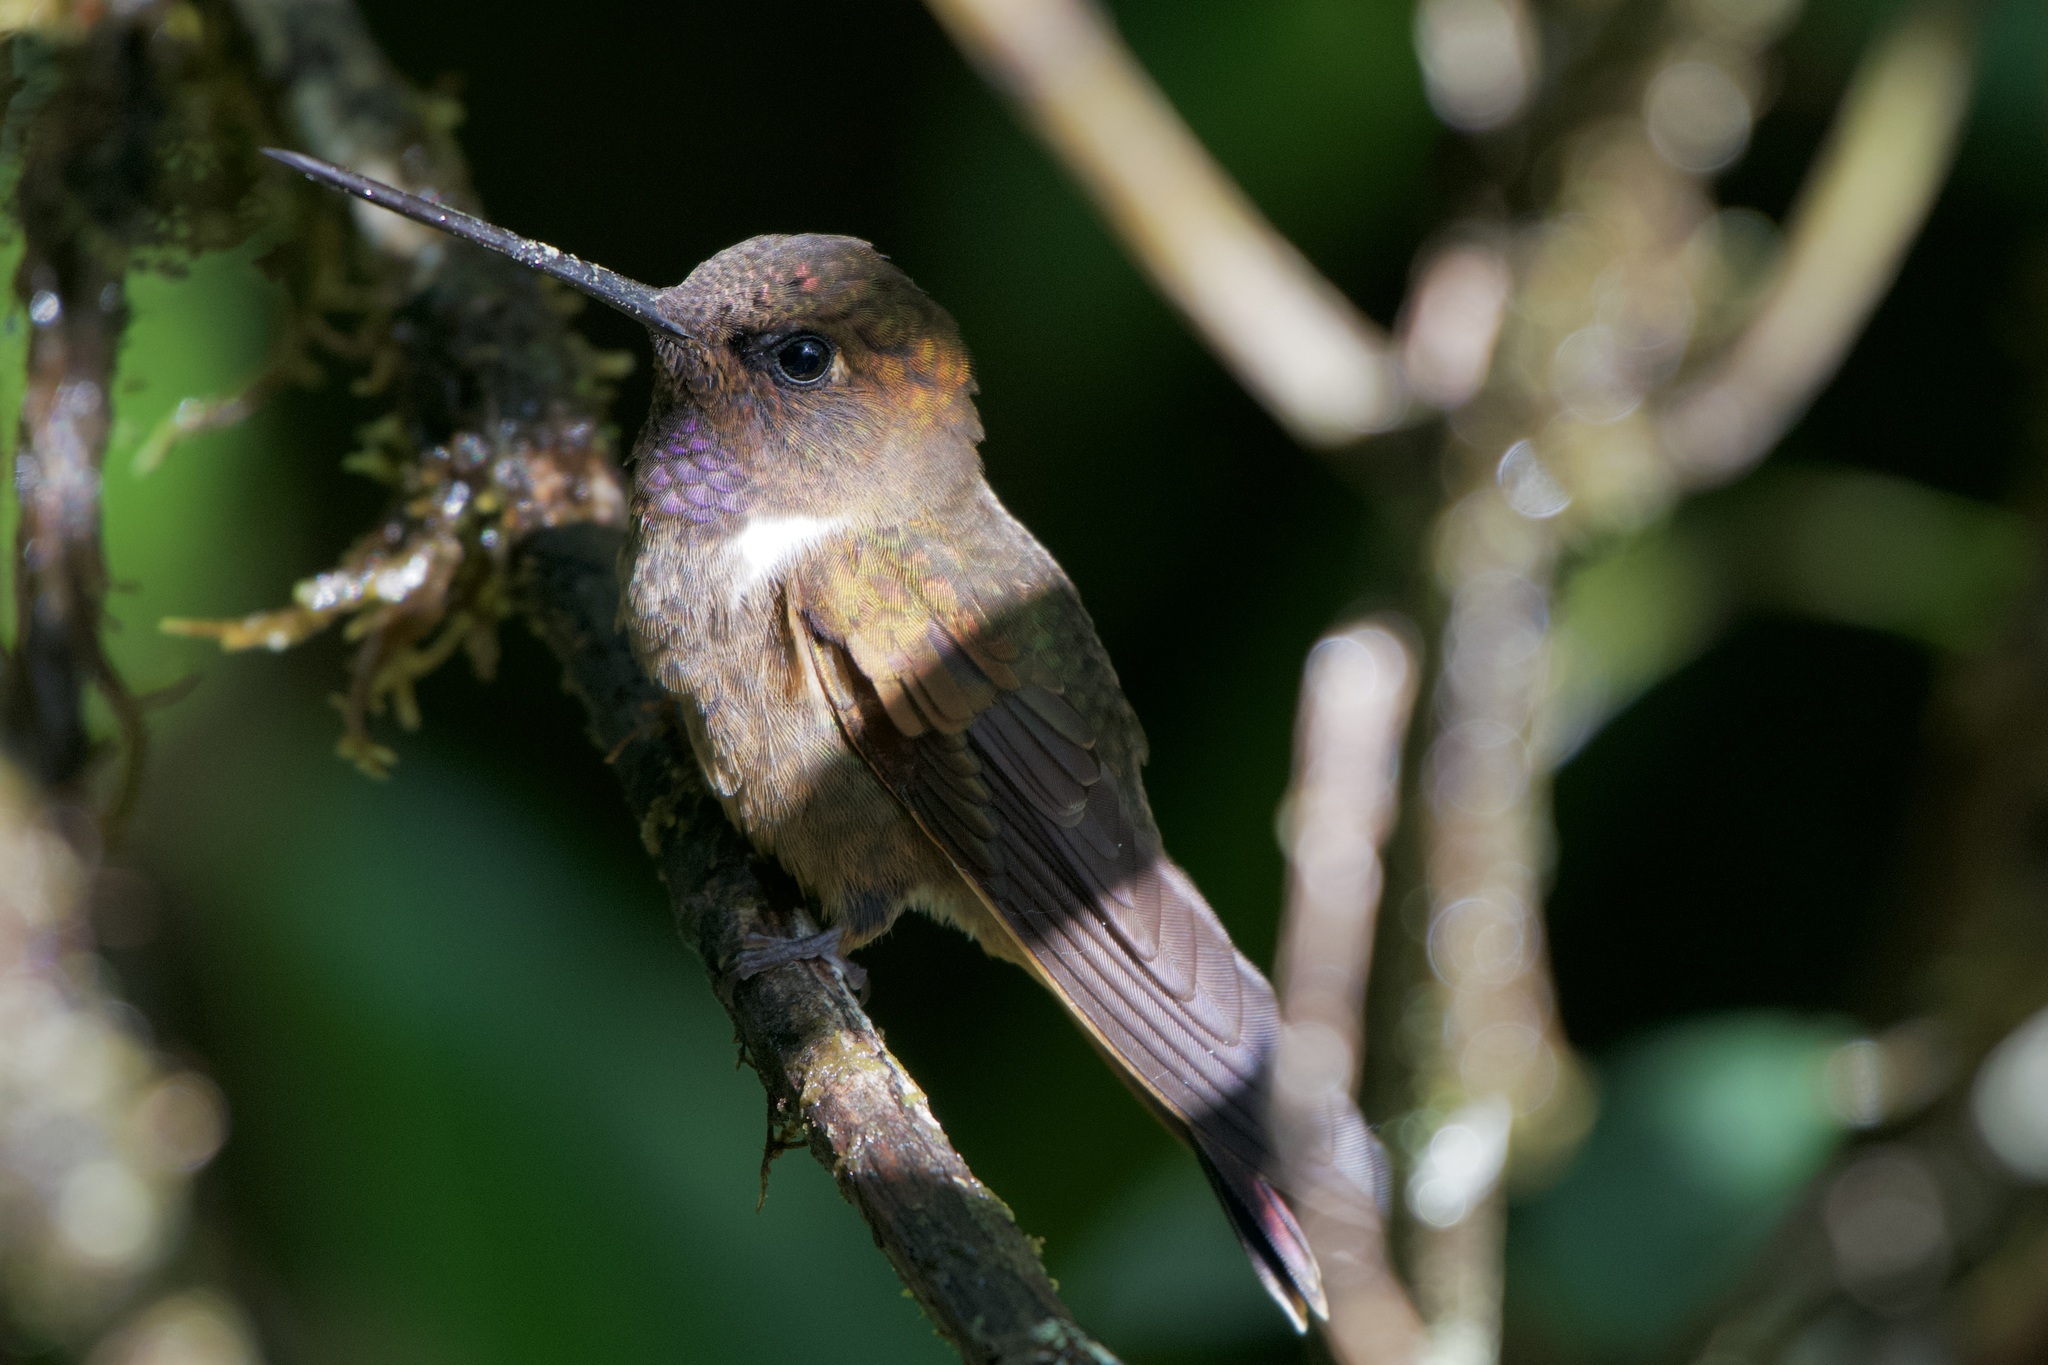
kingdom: Animalia
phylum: Chordata
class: Aves
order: Apodiformes
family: Trochilidae
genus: Coeligena
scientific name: Coeligena wilsoni
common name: Brown inca
